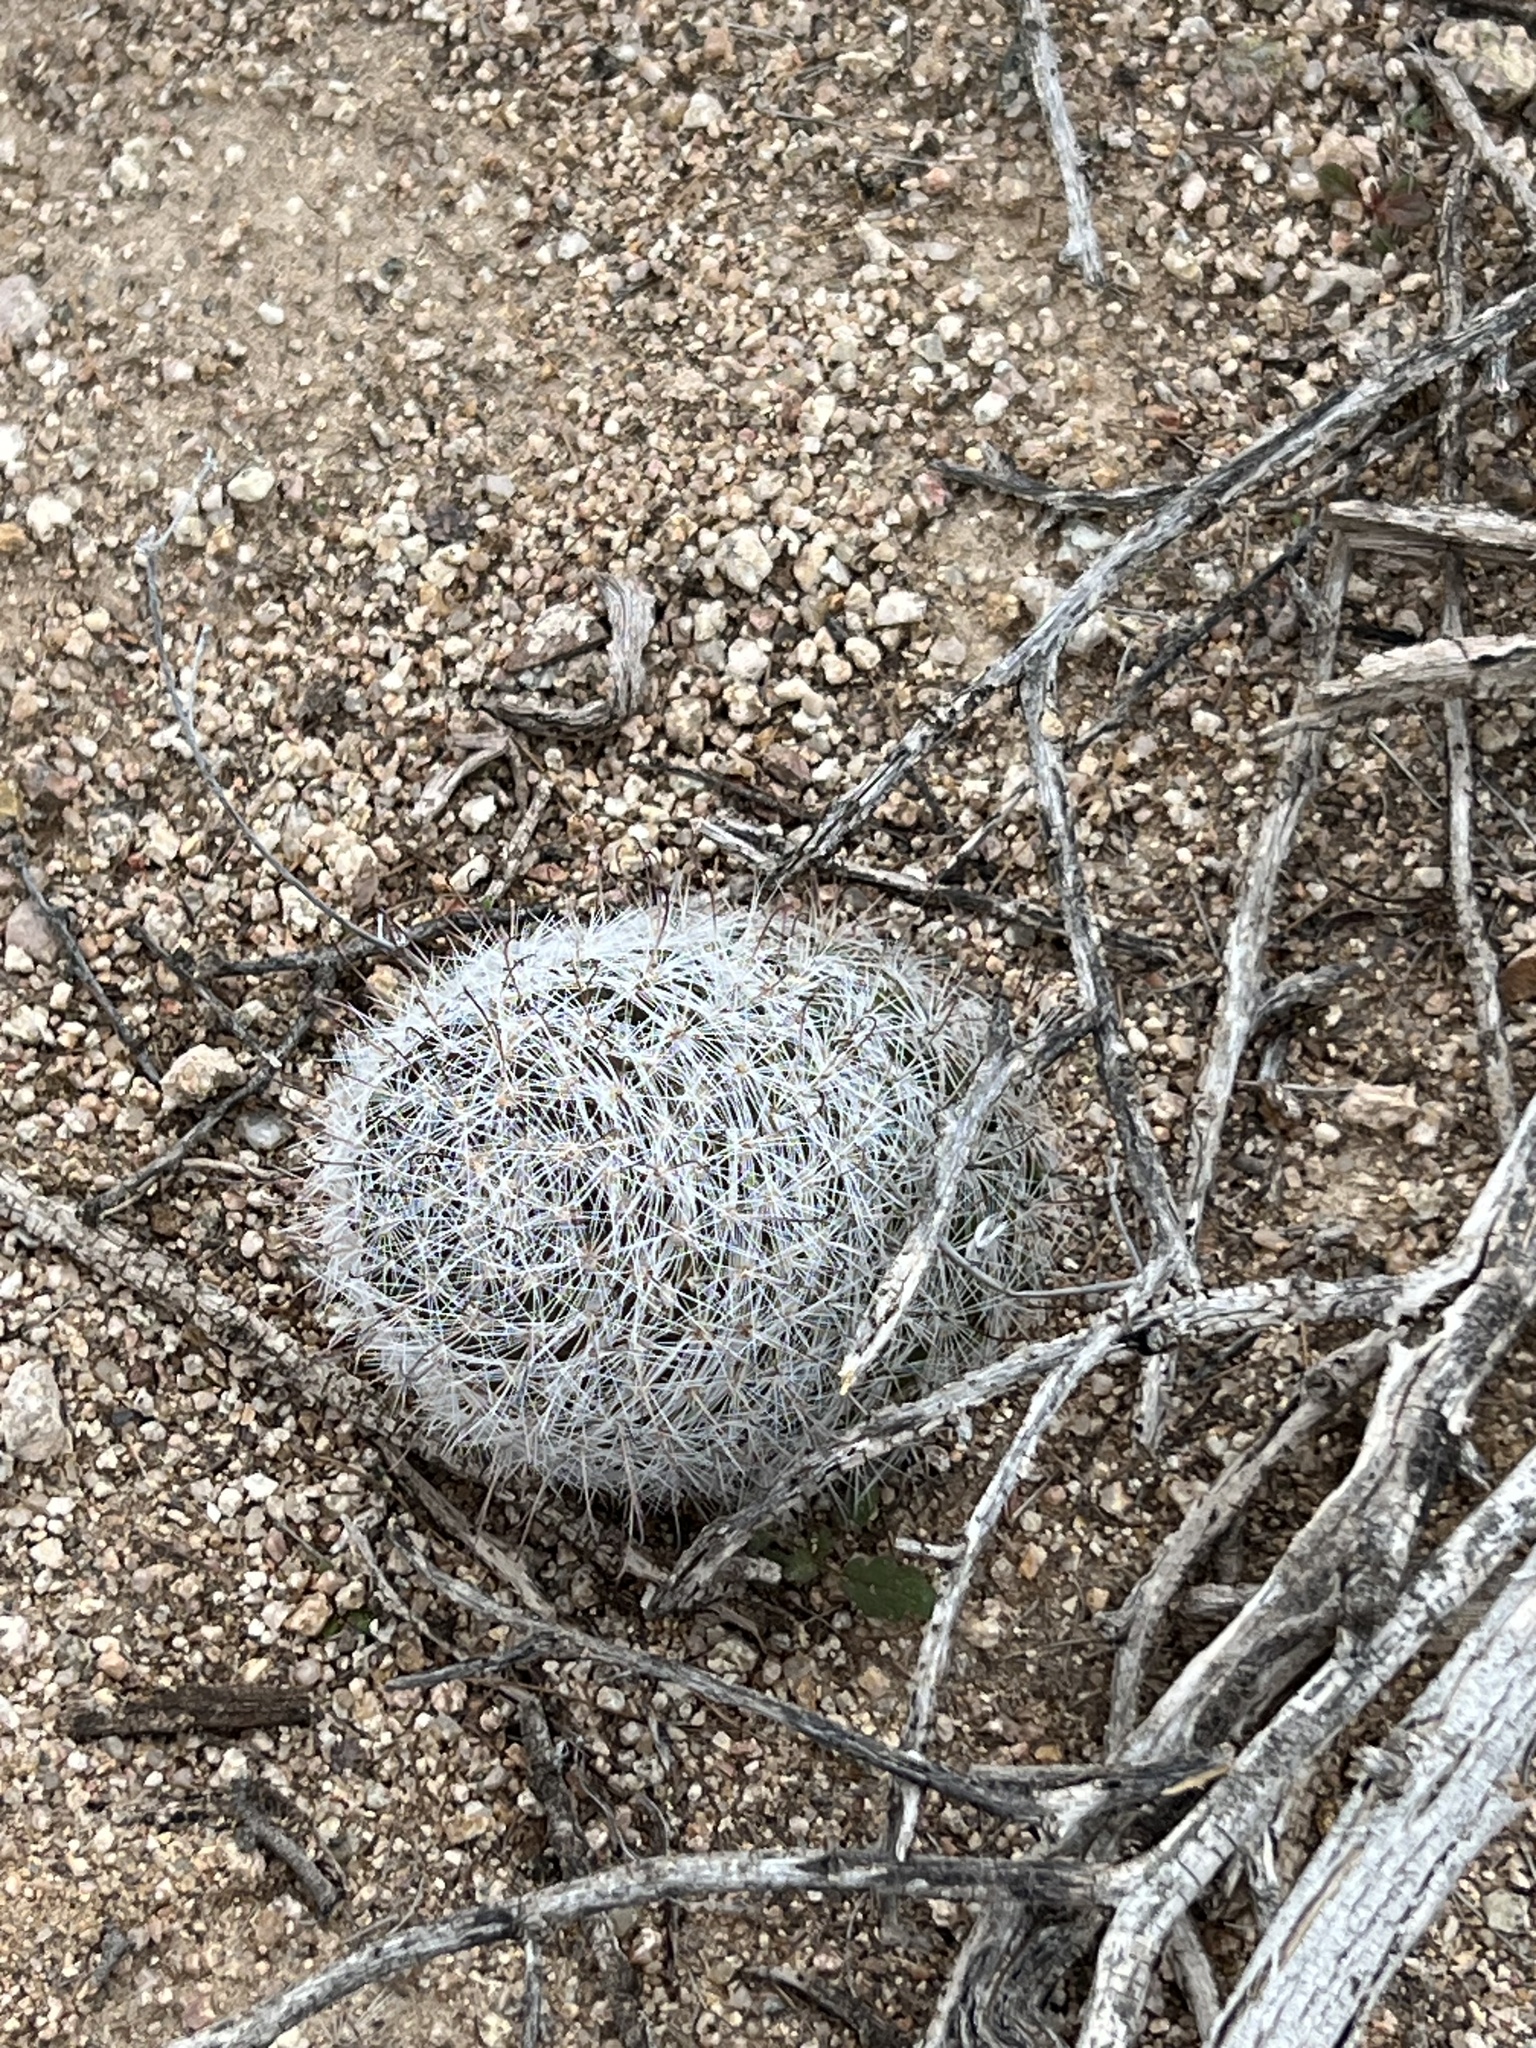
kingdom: Plantae
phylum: Tracheophyta
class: Magnoliopsida
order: Caryophyllales
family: Cactaceae
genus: Cochemiea
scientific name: Cochemiea grahamii
